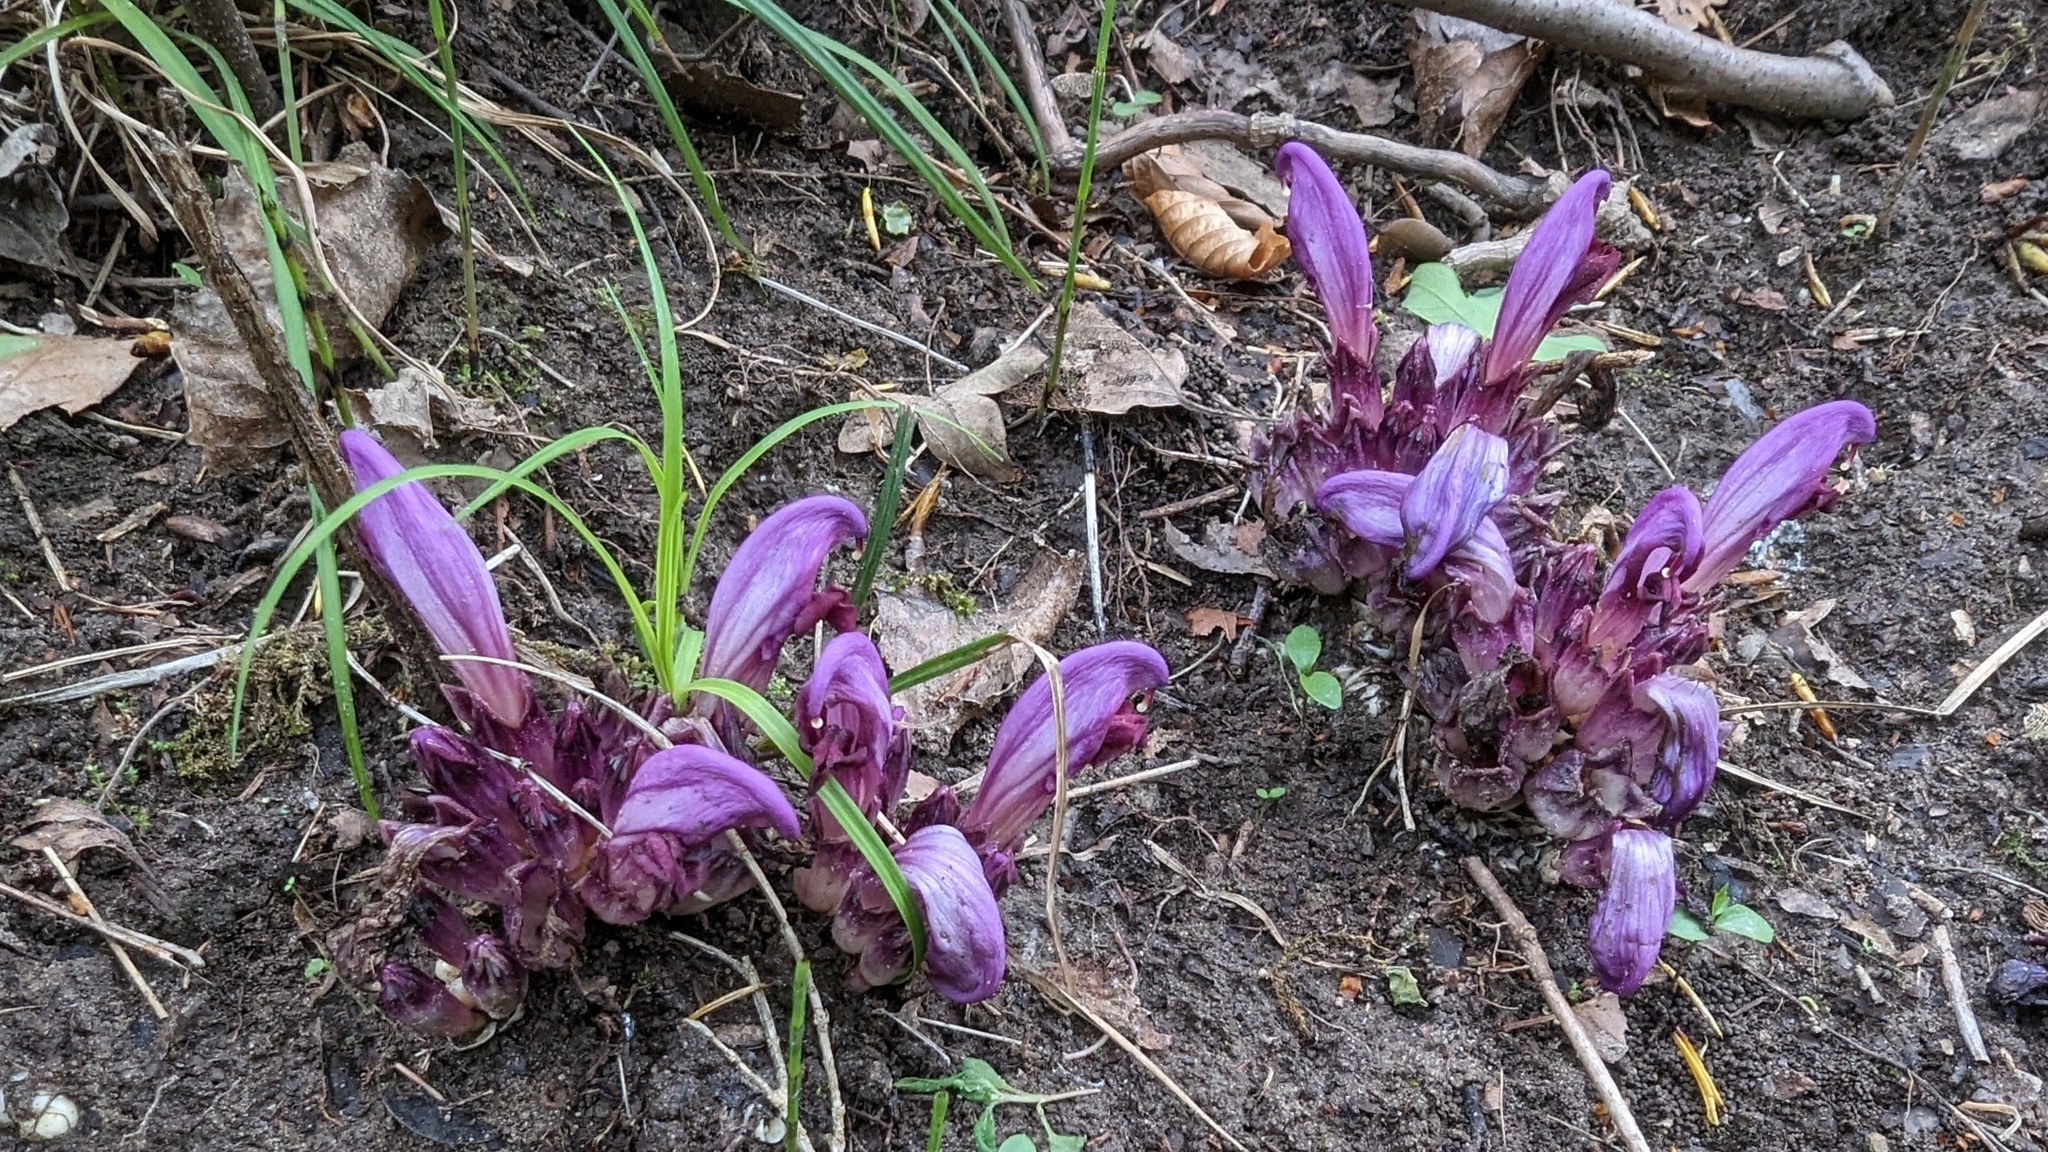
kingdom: Plantae
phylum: Tracheophyta
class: Magnoliopsida
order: Lamiales
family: Orobanchaceae
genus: Lathraea
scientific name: Lathraea clandestina
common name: Purple toothwort
